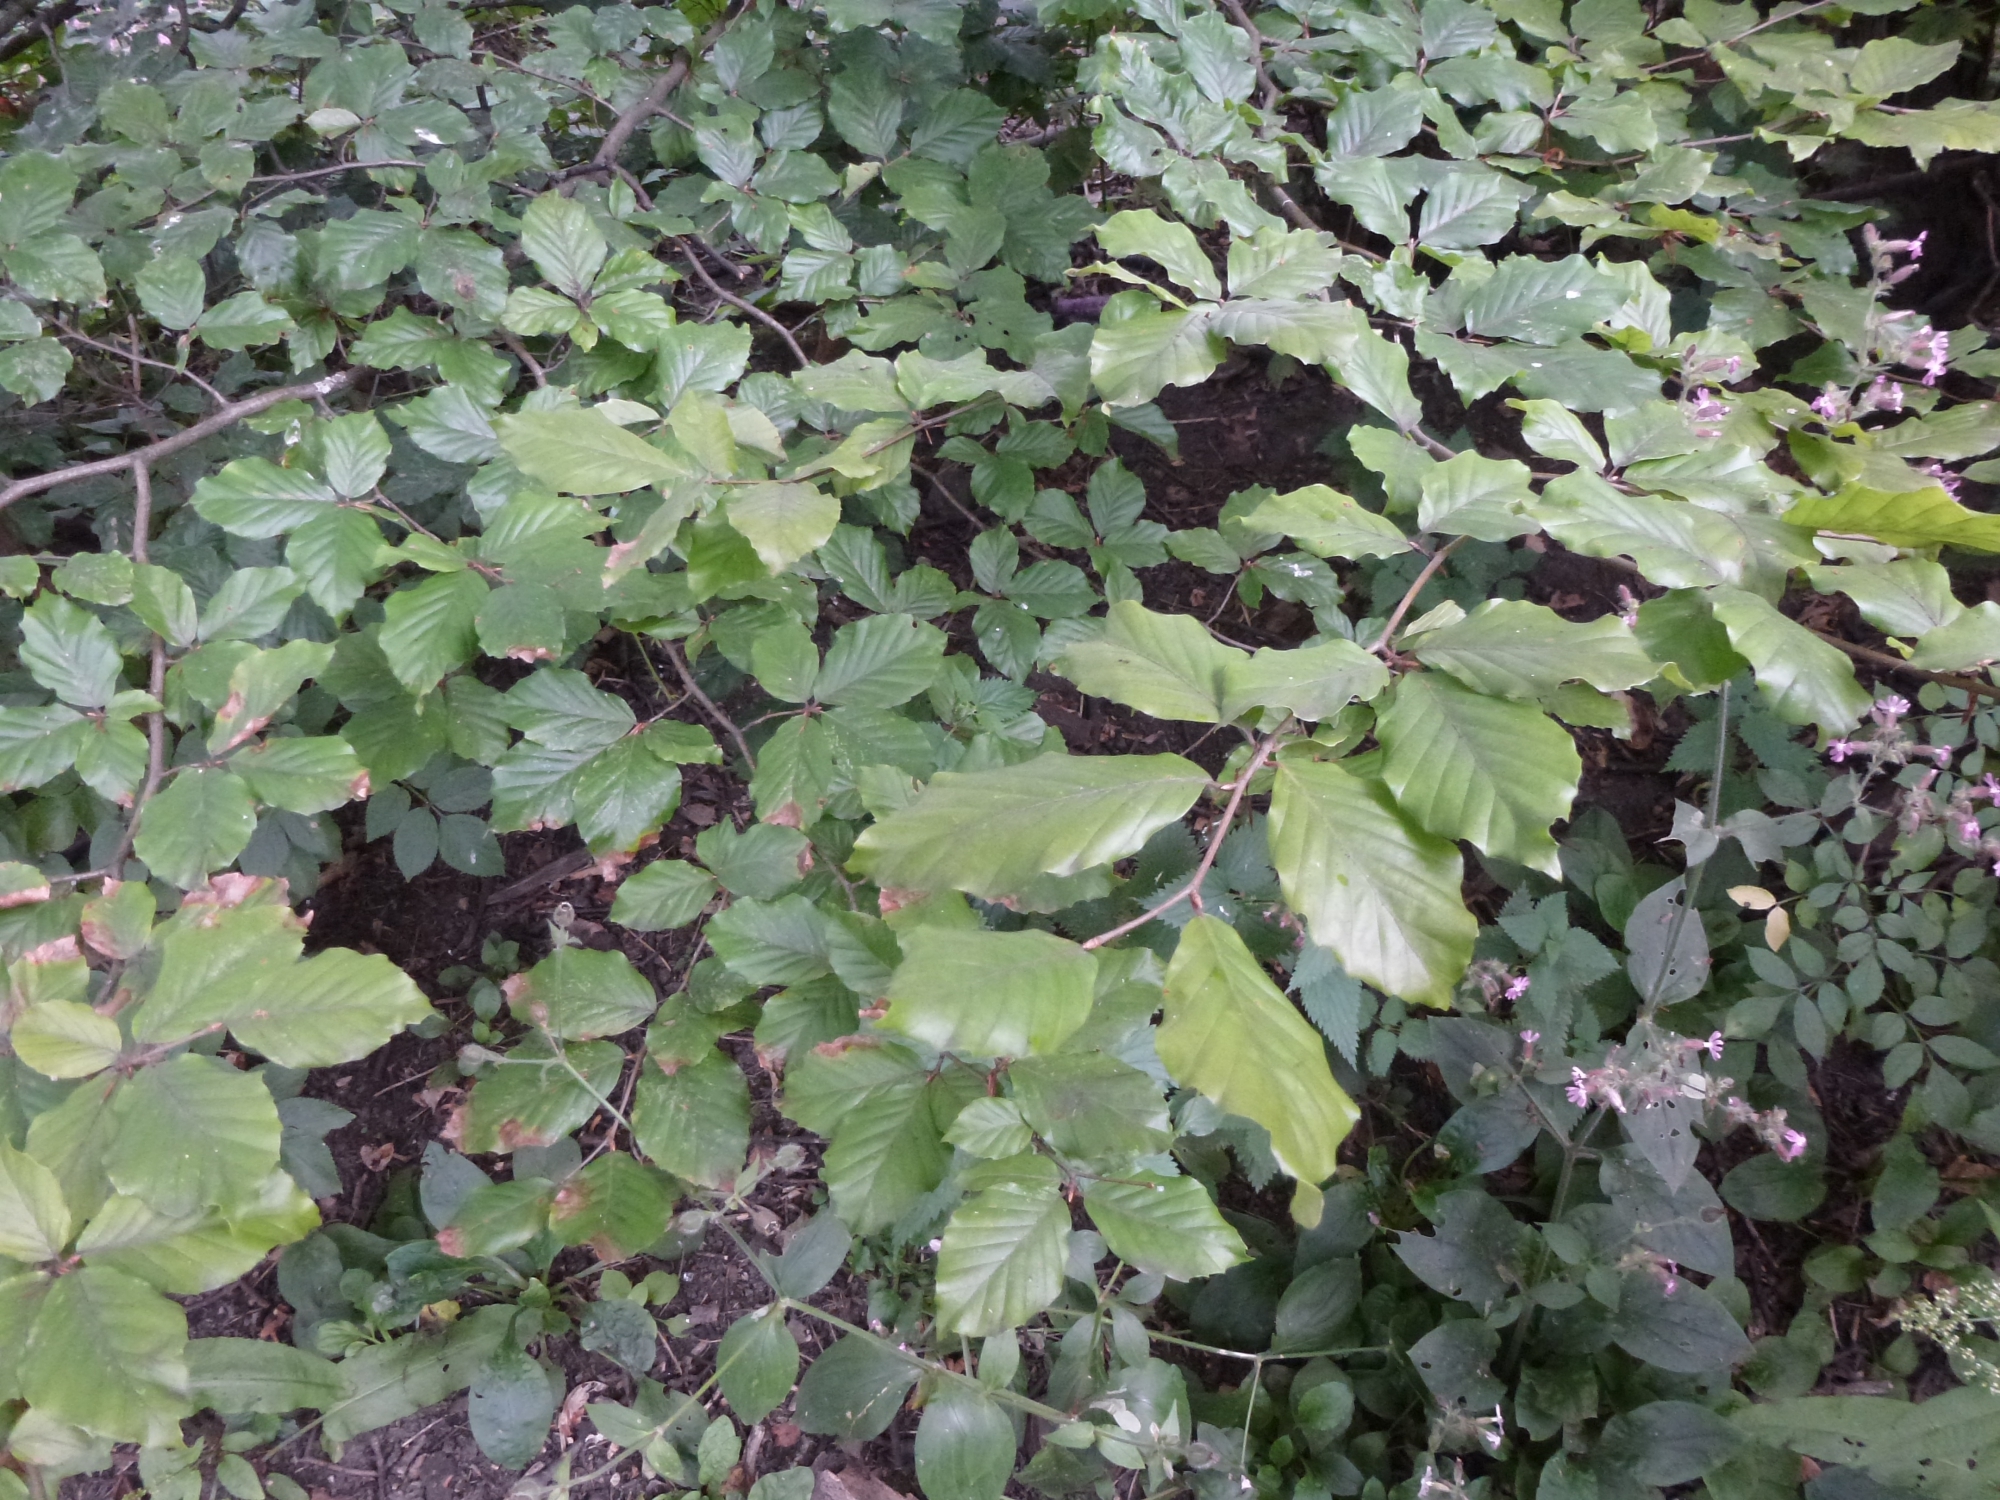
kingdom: Plantae
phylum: Tracheophyta
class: Magnoliopsida
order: Fagales
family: Fagaceae
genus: Fagus
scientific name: Fagus sylvatica
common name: Beech
